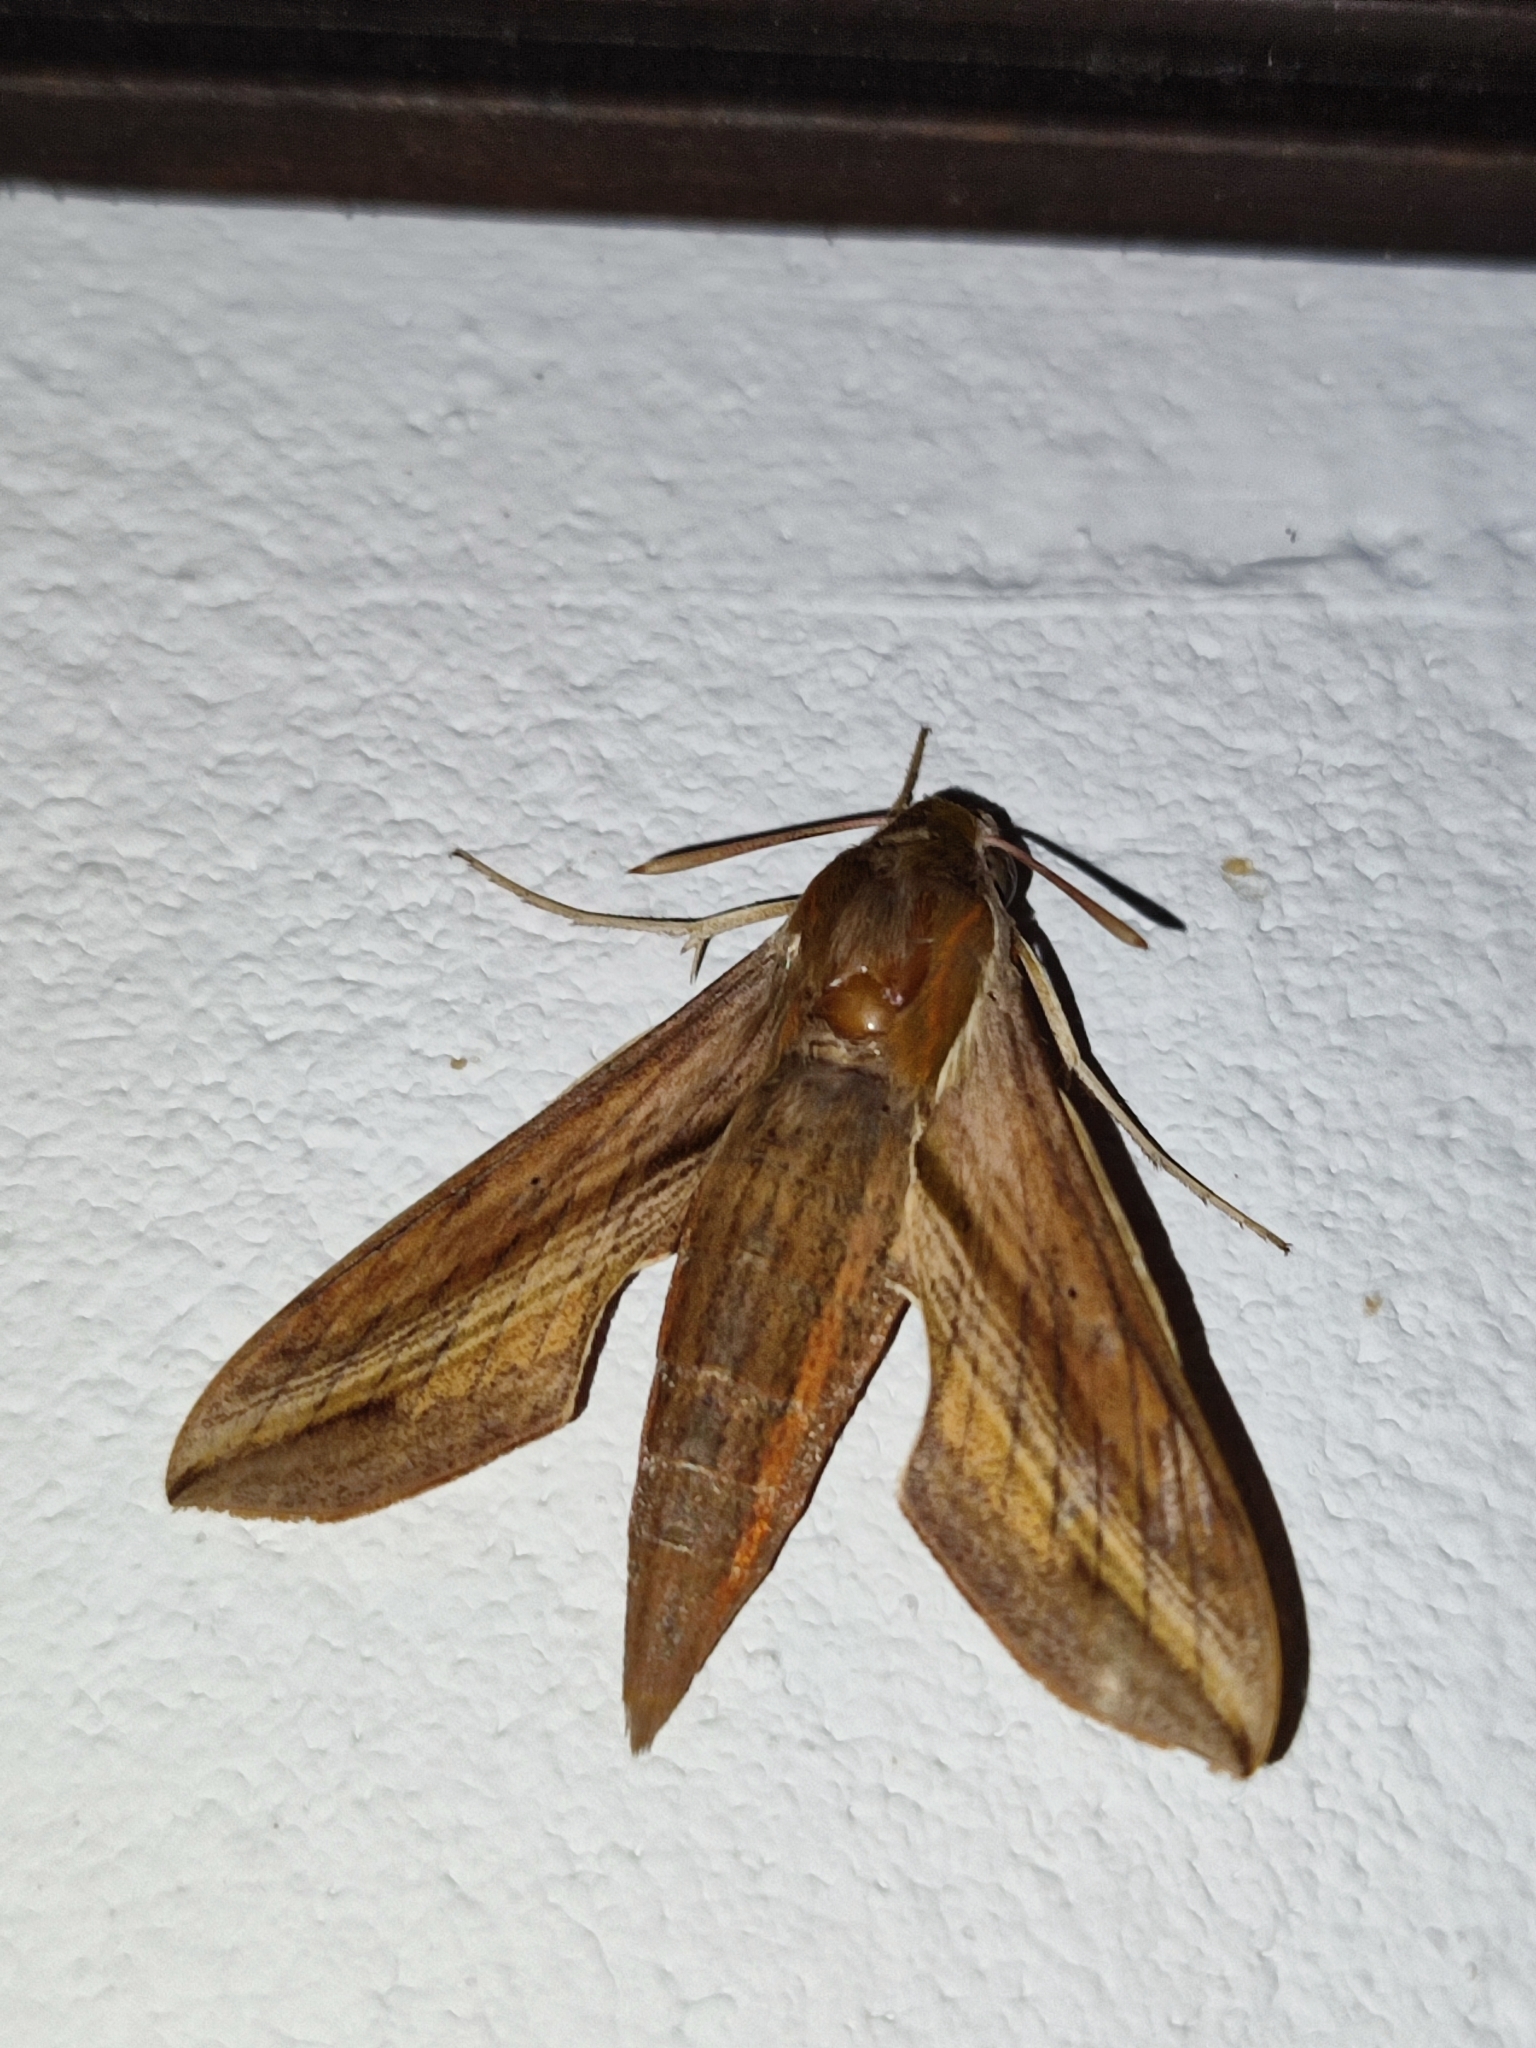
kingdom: Animalia
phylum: Arthropoda
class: Insecta
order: Lepidoptera
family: Sphingidae
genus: Hippotion
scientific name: Hippotion rosetta
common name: Vine hawk moth
